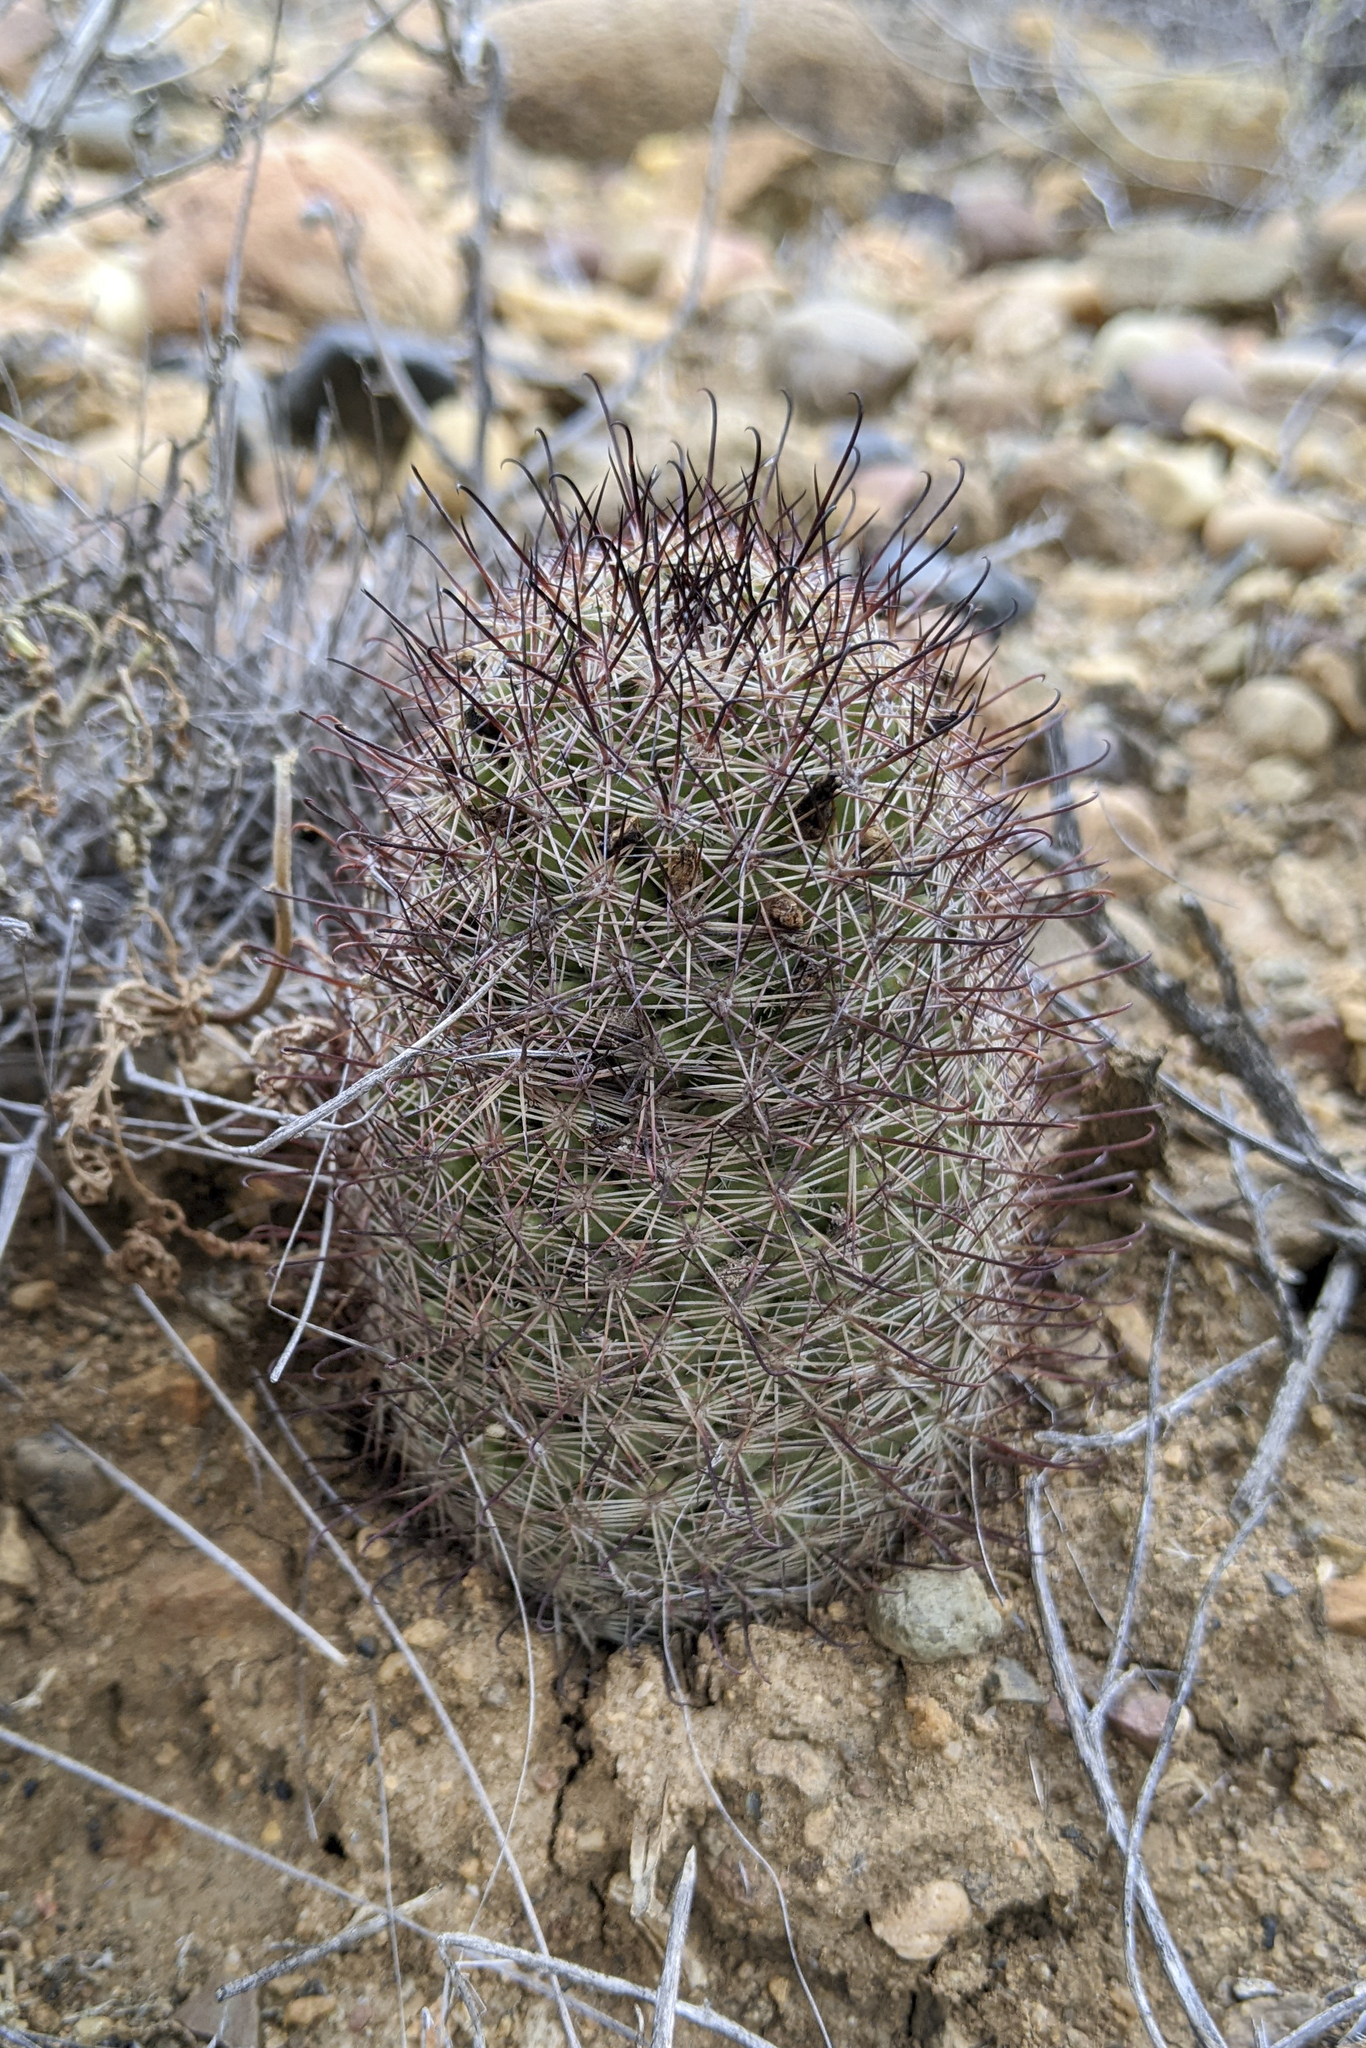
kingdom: Plantae
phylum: Tracheophyta
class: Magnoliopsida
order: Caryophyllales
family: Cactaceae
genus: Cochemiea
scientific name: Cochemiea dioica
